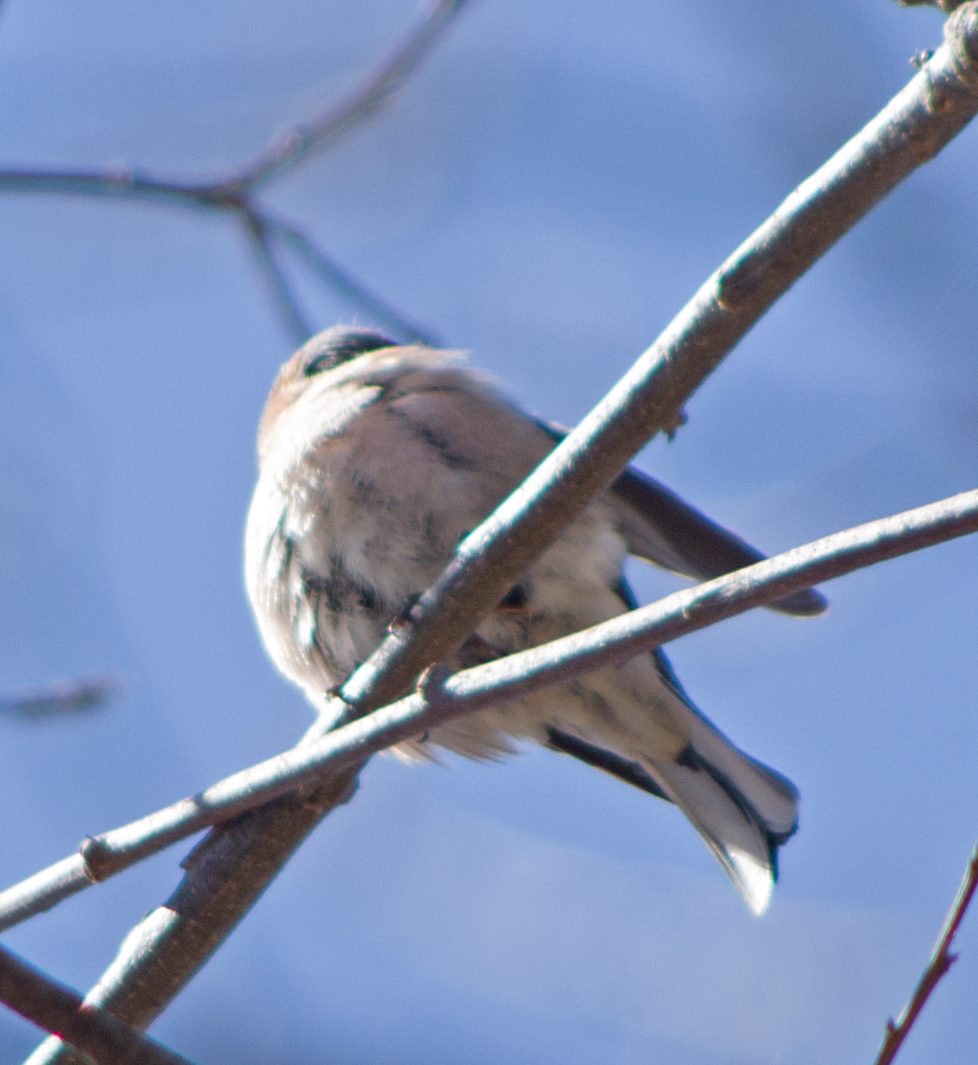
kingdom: Animalia
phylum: Chordata
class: Aves
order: Passeriformes
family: Fringillidae
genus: Fringilla
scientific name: Fringilla coelebs
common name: Common chaffinch
